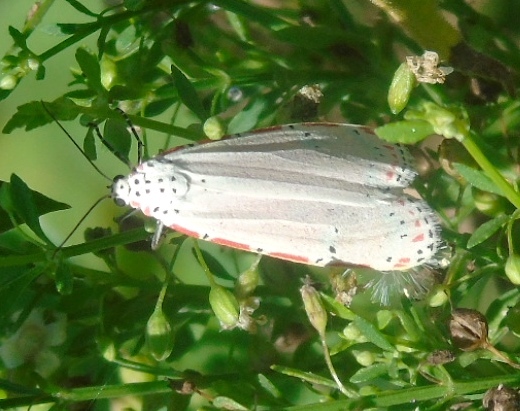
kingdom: Animalia
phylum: Arthropoda
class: Insecta
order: Lepidoptera
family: Erebidae
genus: Utetheisa
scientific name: Utetheisa ornatrix
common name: Beautiful utetheisa
